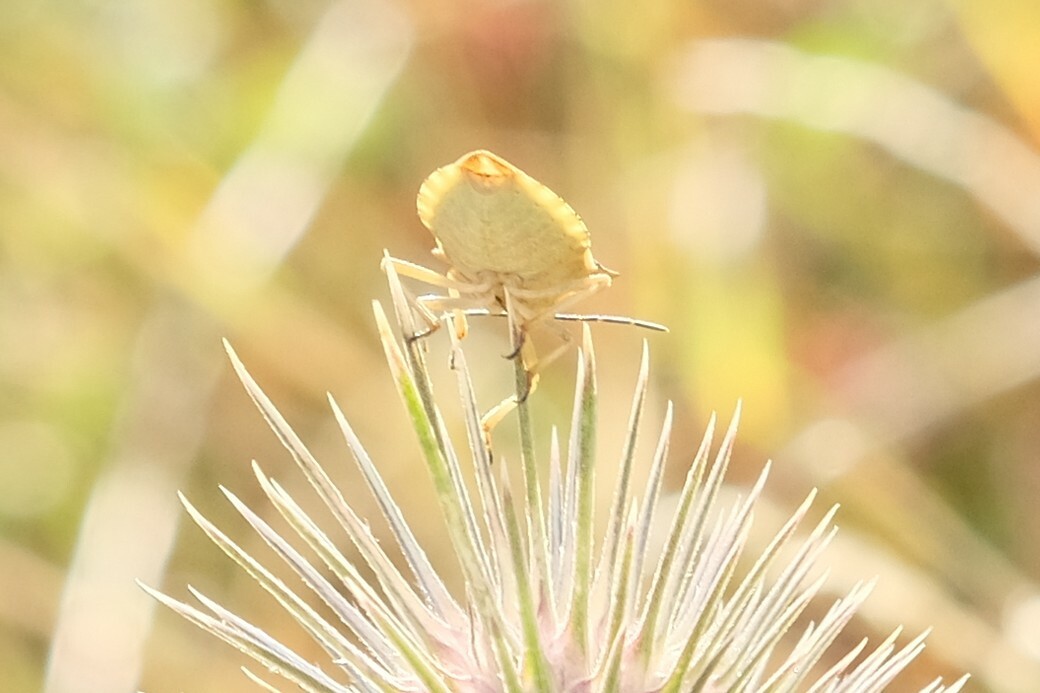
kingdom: Animalia
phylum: Arthropoda
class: Insecta
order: Hemiptera
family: Pentatomidae
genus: Carpocoris
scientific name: Carpocoris fuscispinus
